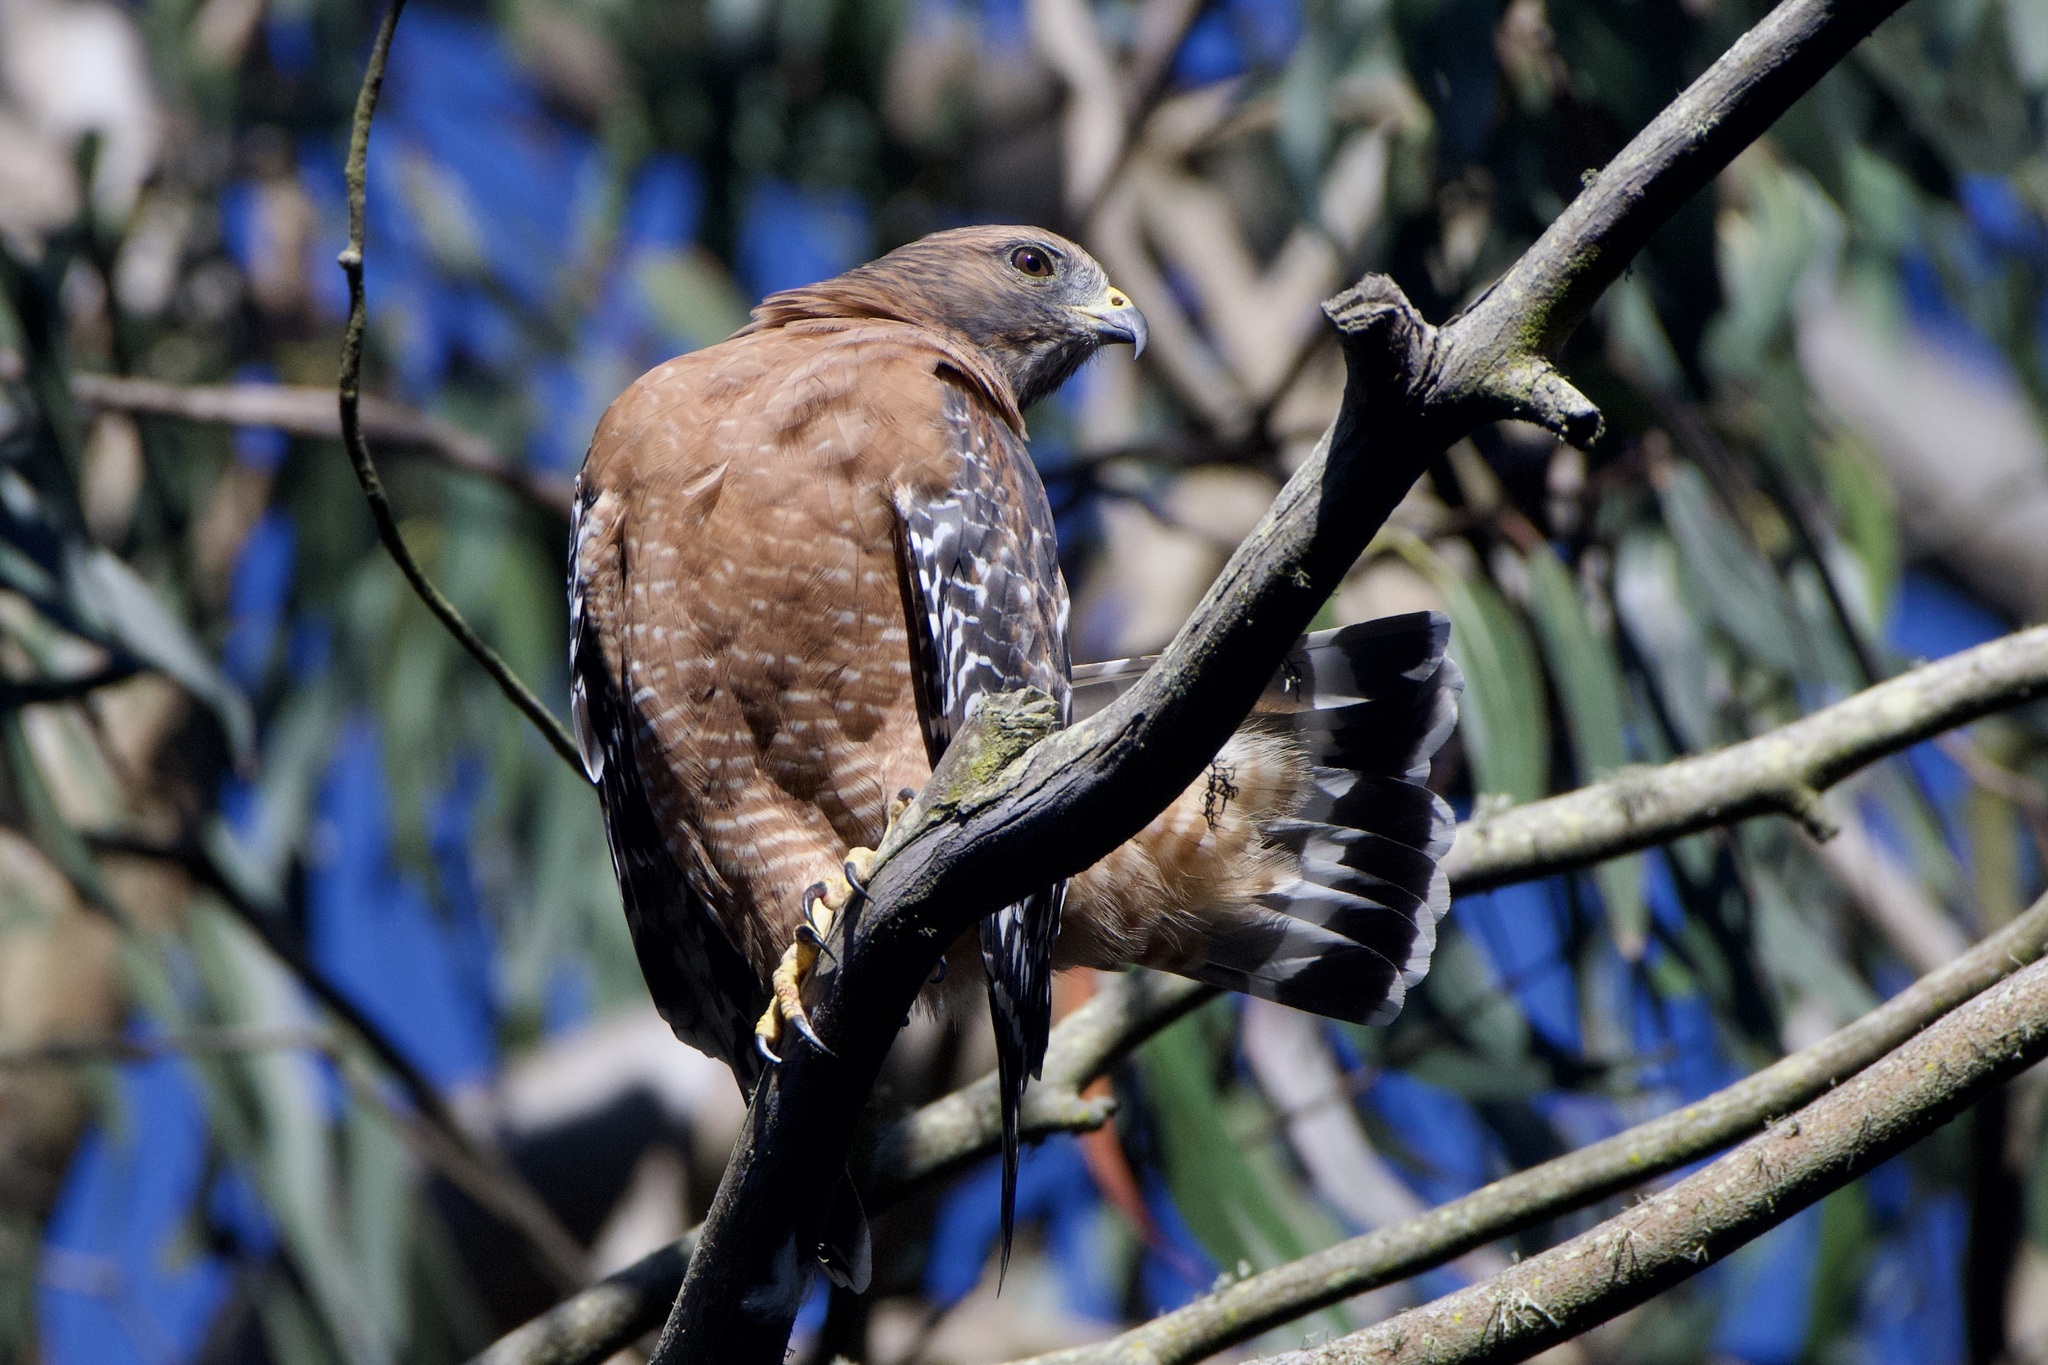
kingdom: Animalia
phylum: Chordata
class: Aves
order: Accipitriformes
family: Accipitridae
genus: Buteo
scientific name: Buteo lineatus
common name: Red-shouldered hawk
